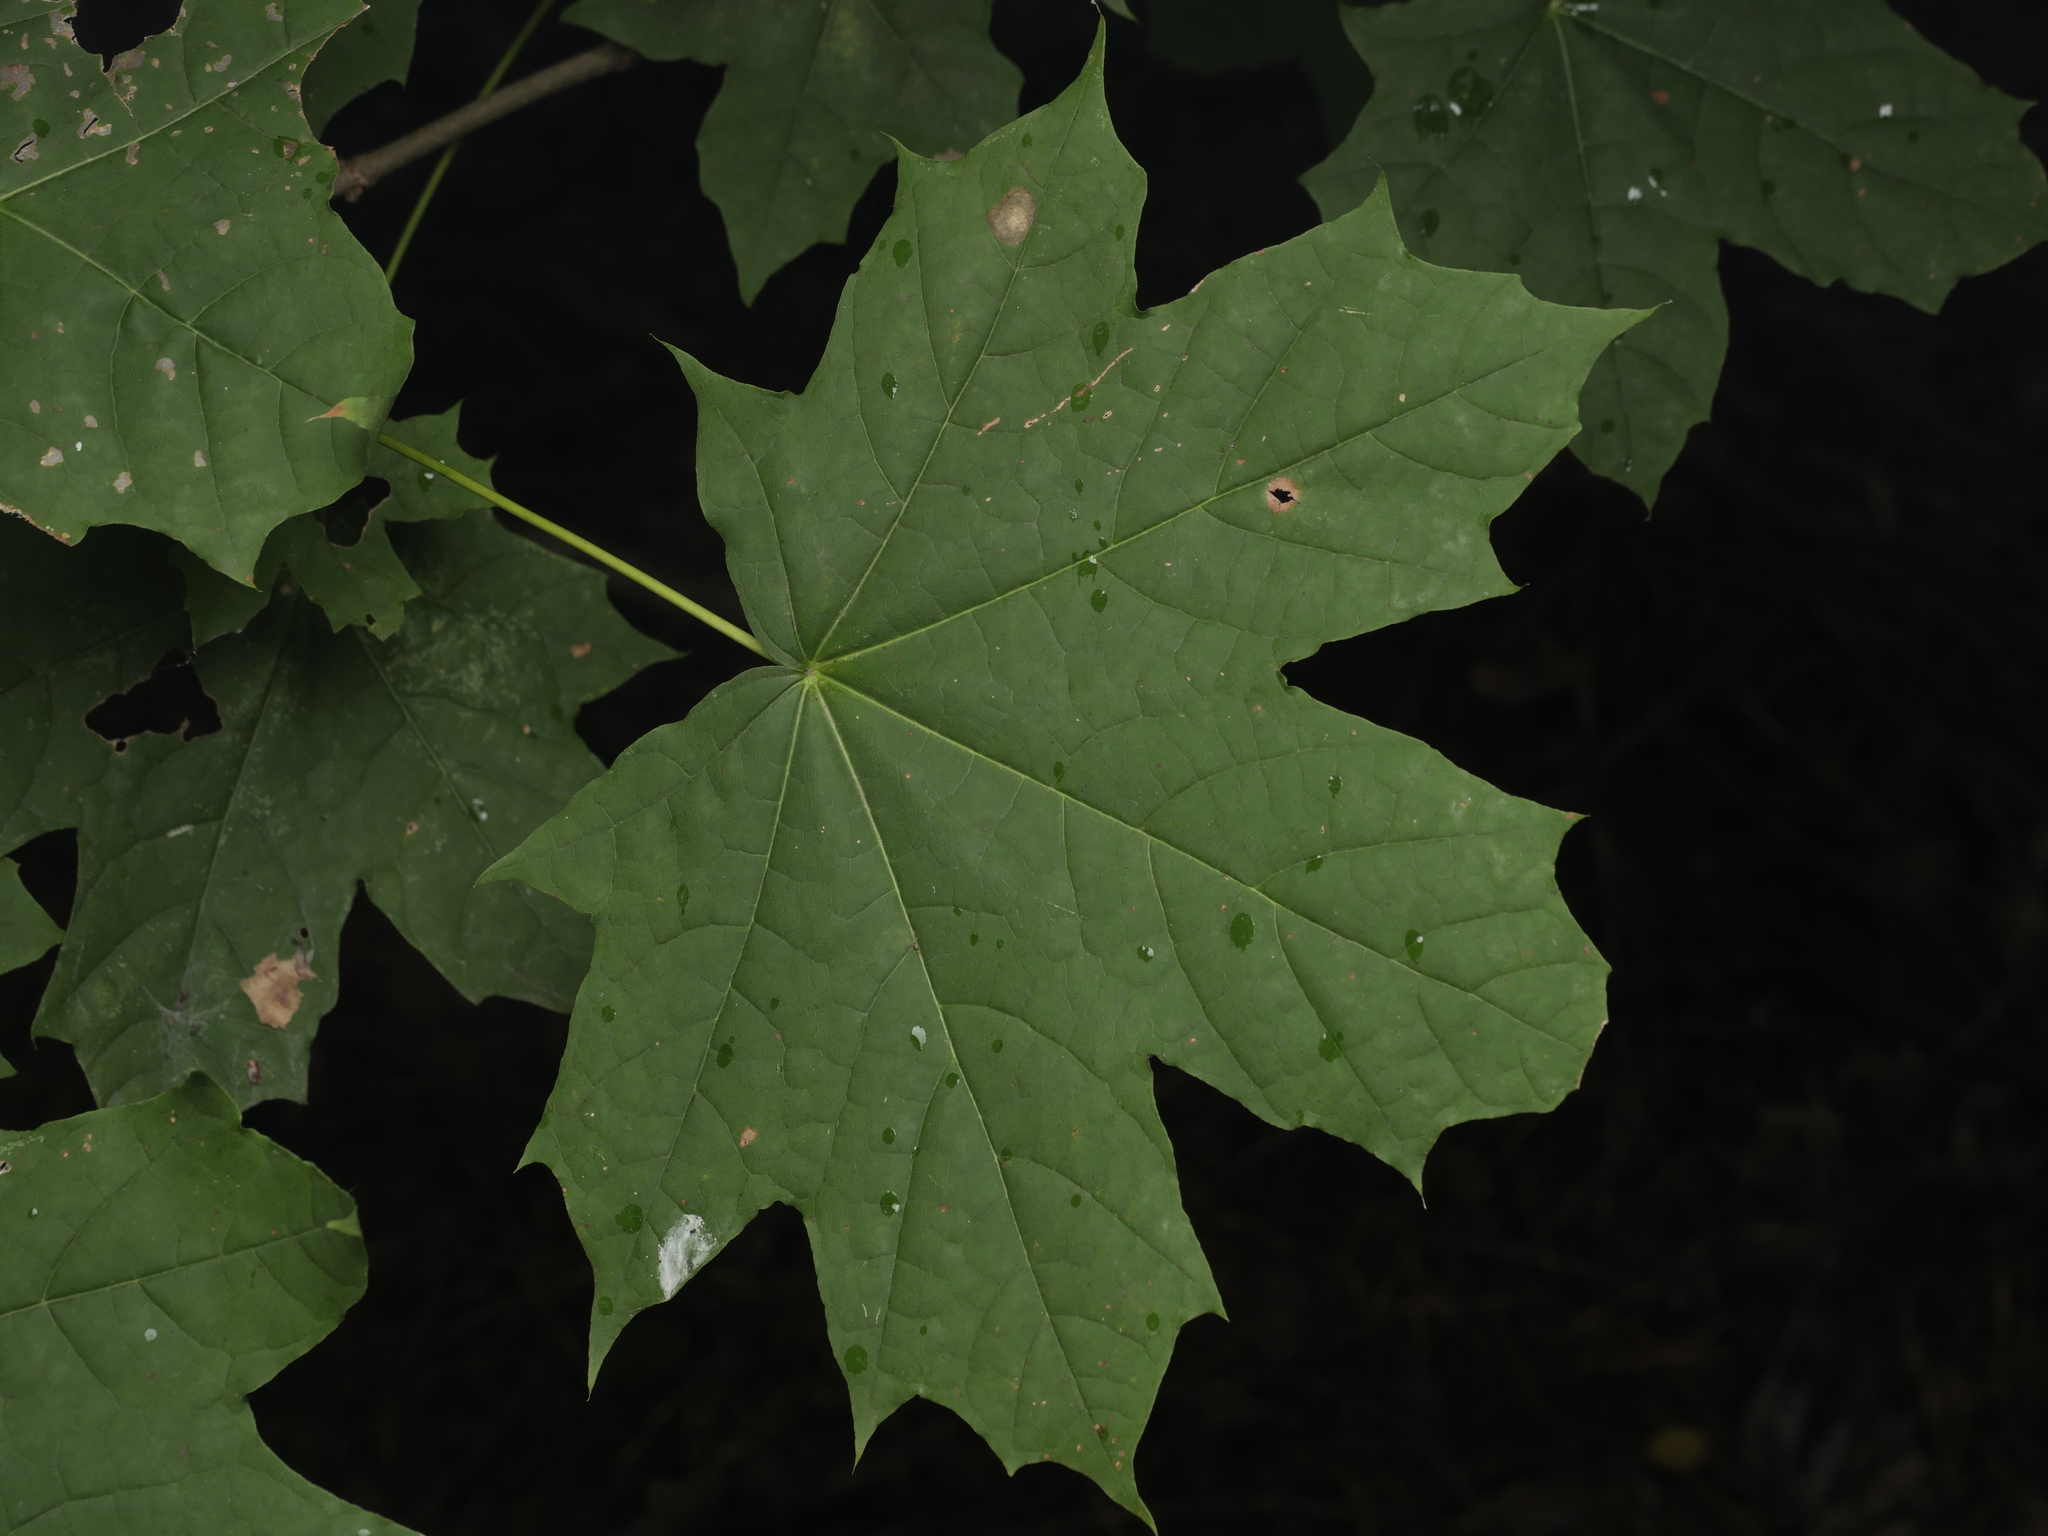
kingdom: Plantae
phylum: Tracheophyta
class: Magnoliopsida
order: Sapindales
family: Sapindaceae
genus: Acer
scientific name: Acer platanoides
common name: Norway maple
